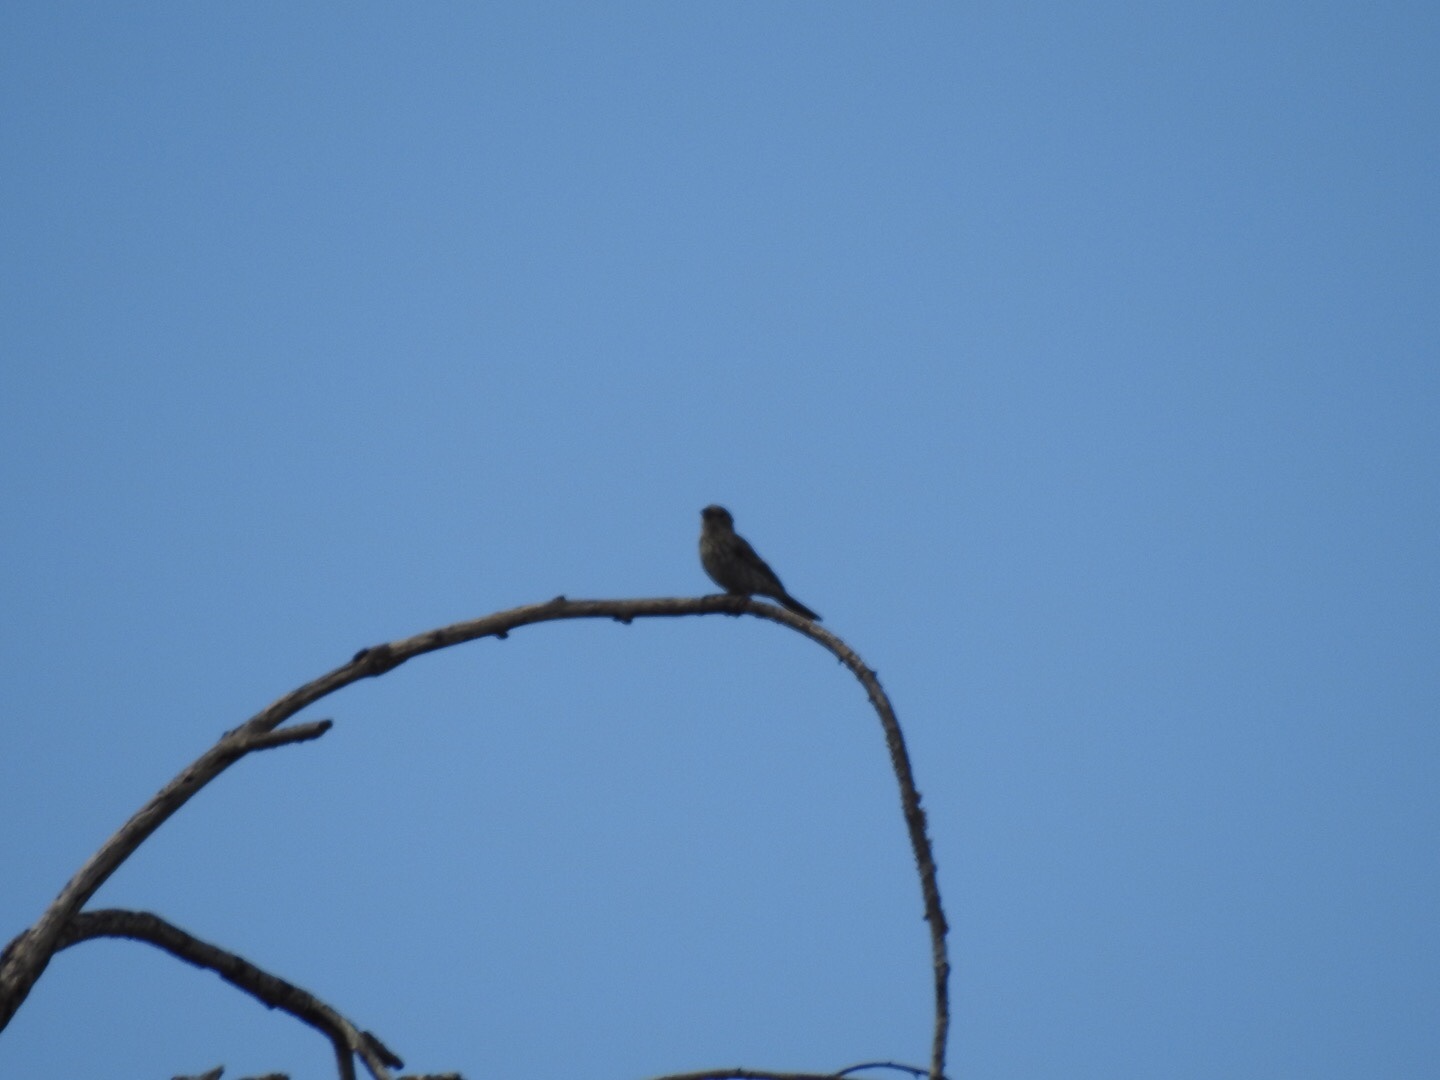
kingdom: Animalia
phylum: Chordata
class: Aves
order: Passeriformes
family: Fringillidae
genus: Haemorhous
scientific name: Haemorhous mexicanus
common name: House finch
